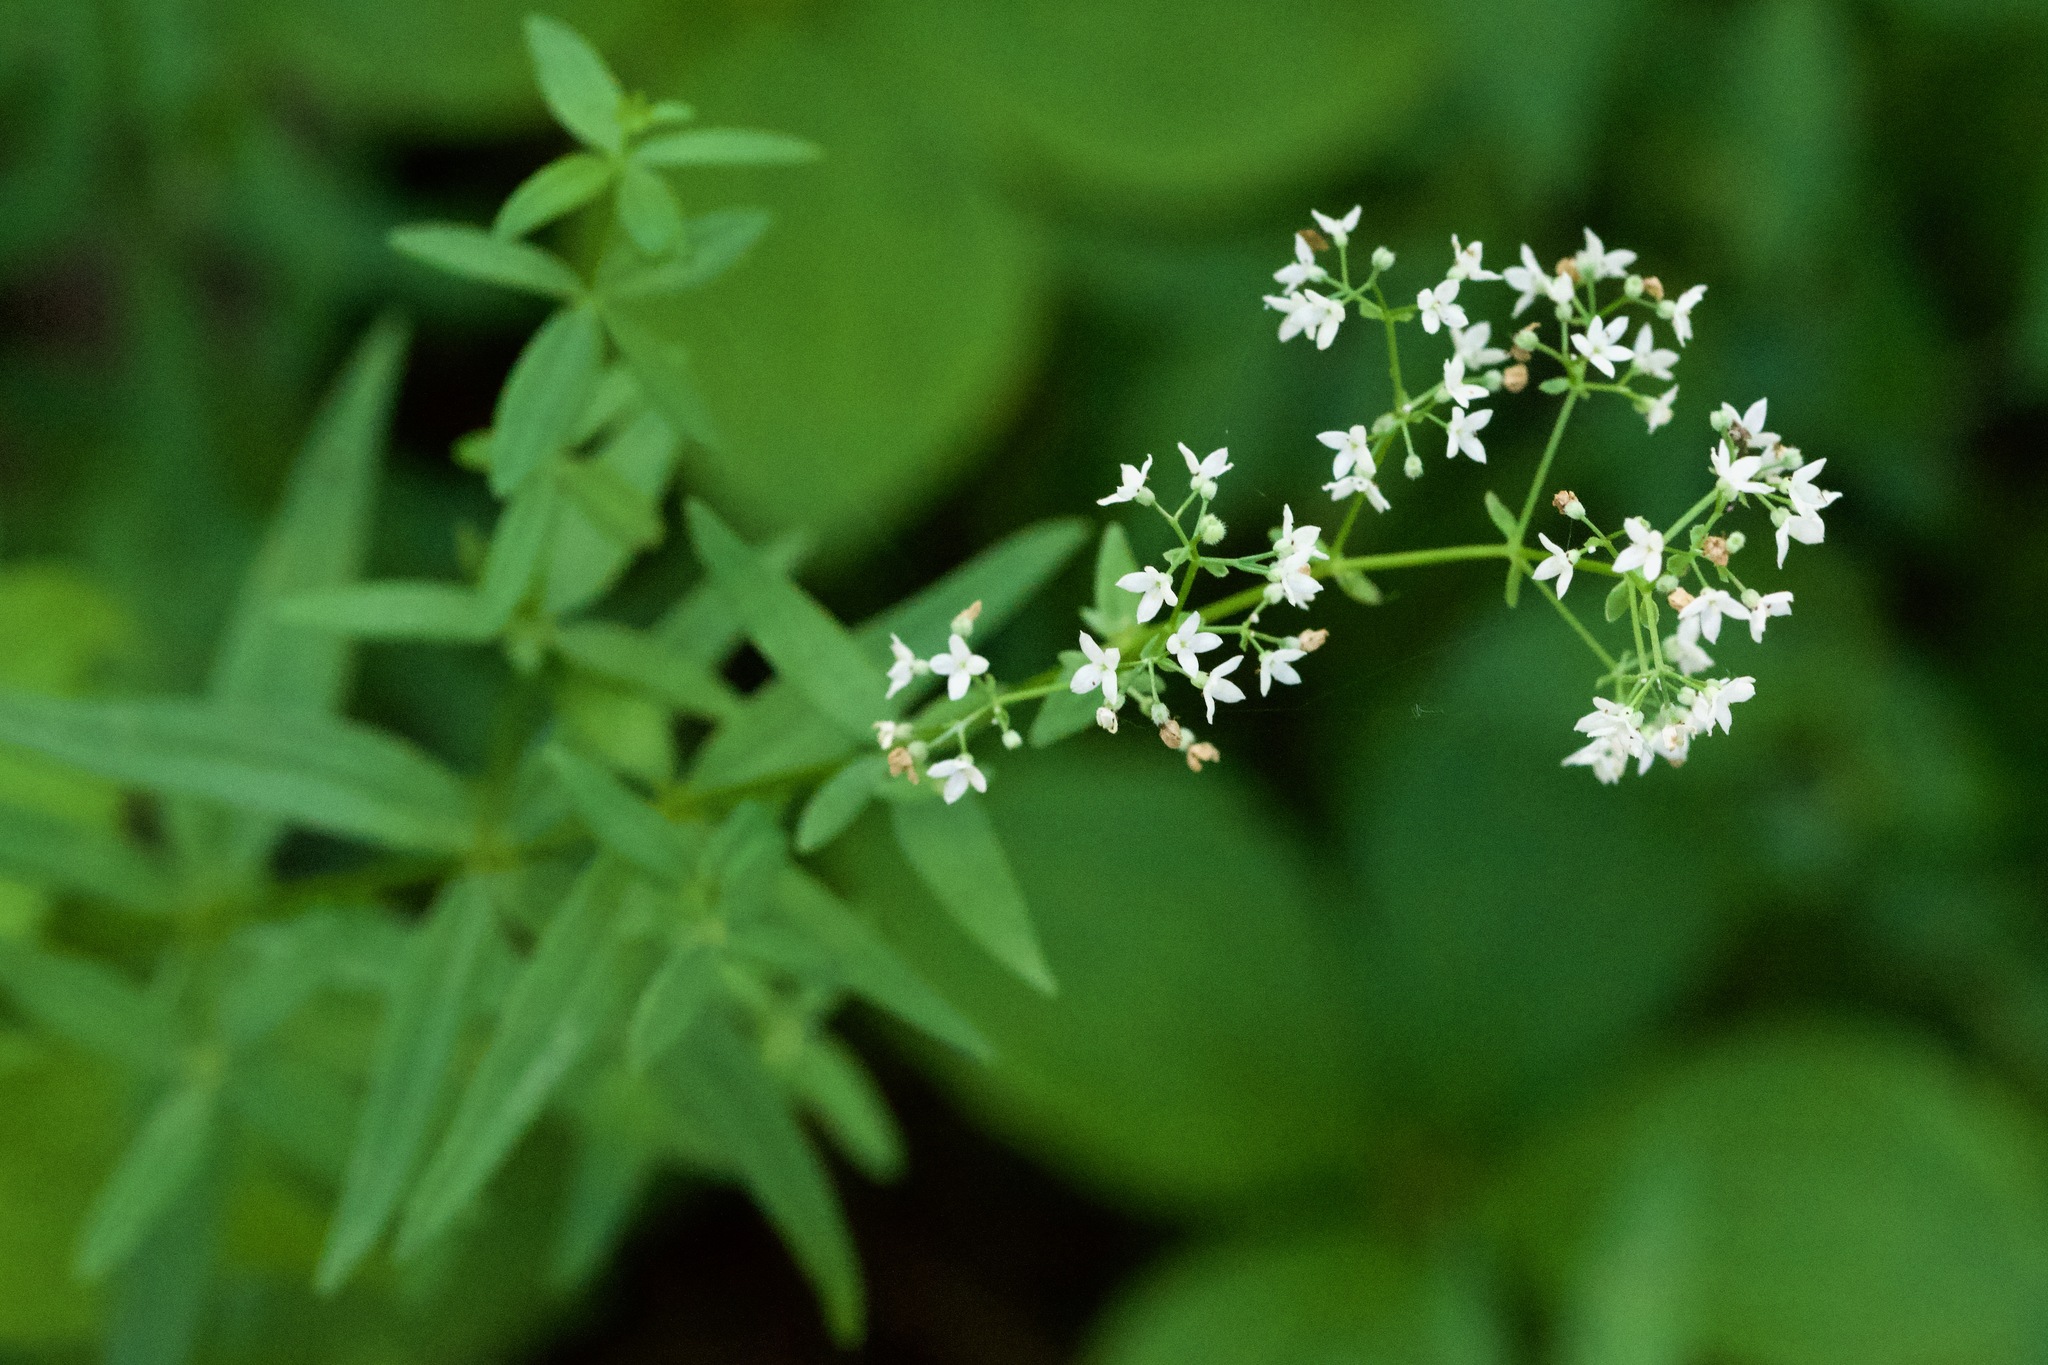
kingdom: Plantae
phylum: Tracheophyta
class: Magnoliopsida
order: Gentianales
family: Rubiaceae
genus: Galium
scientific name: Galium boreale
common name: Northern bedstraw
